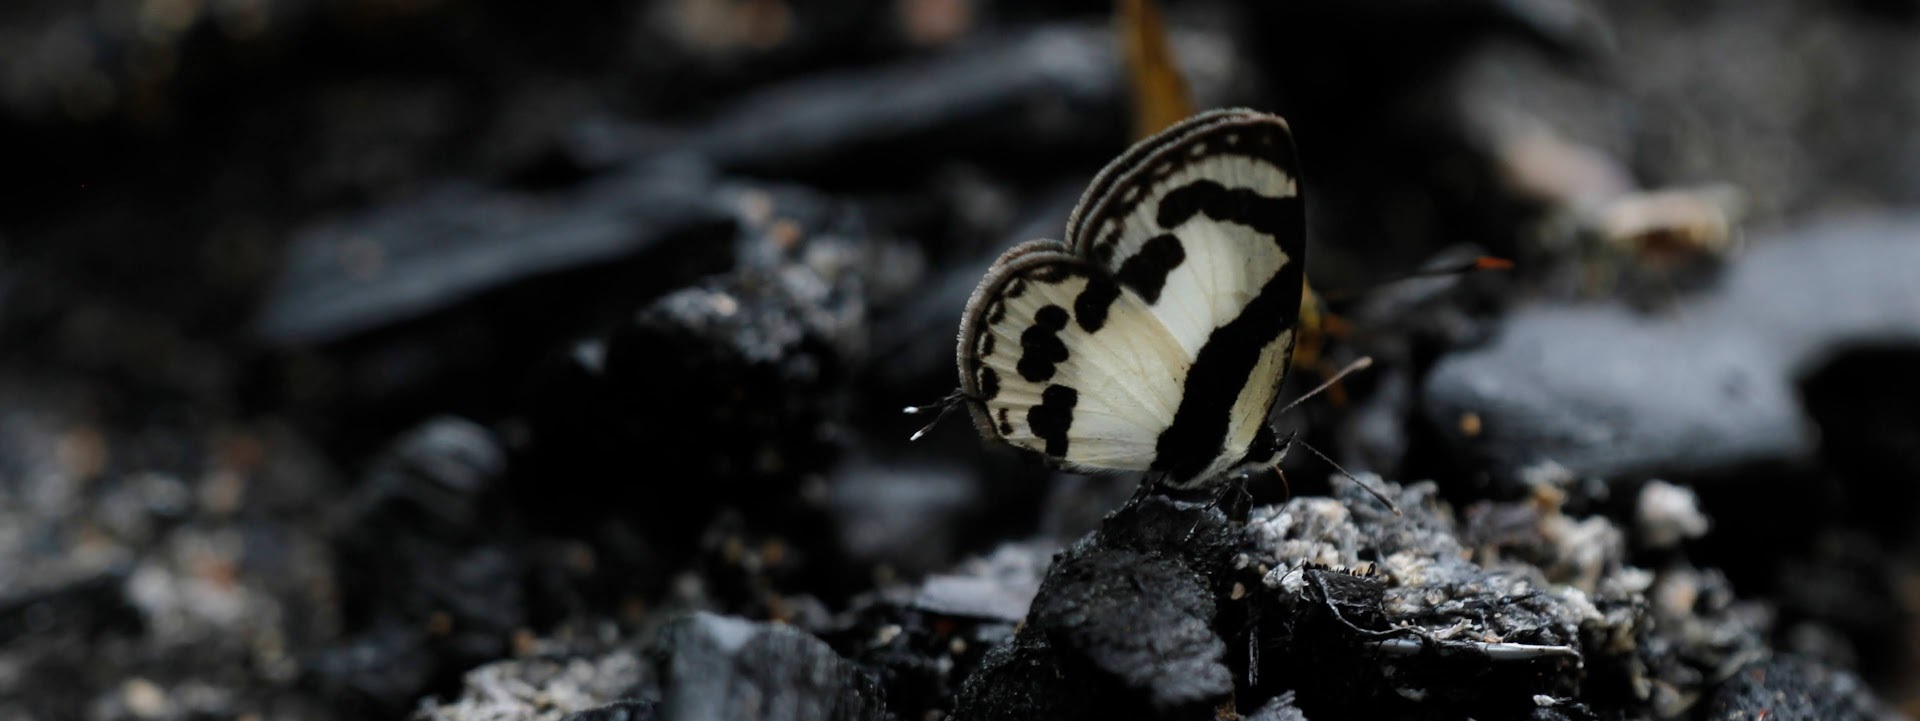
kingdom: Animalia
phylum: Arthropoda
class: Insecta
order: Lepidoptera
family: Lycaenidae
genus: Caleta
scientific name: Caleta roxus
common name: Straight pierrot
